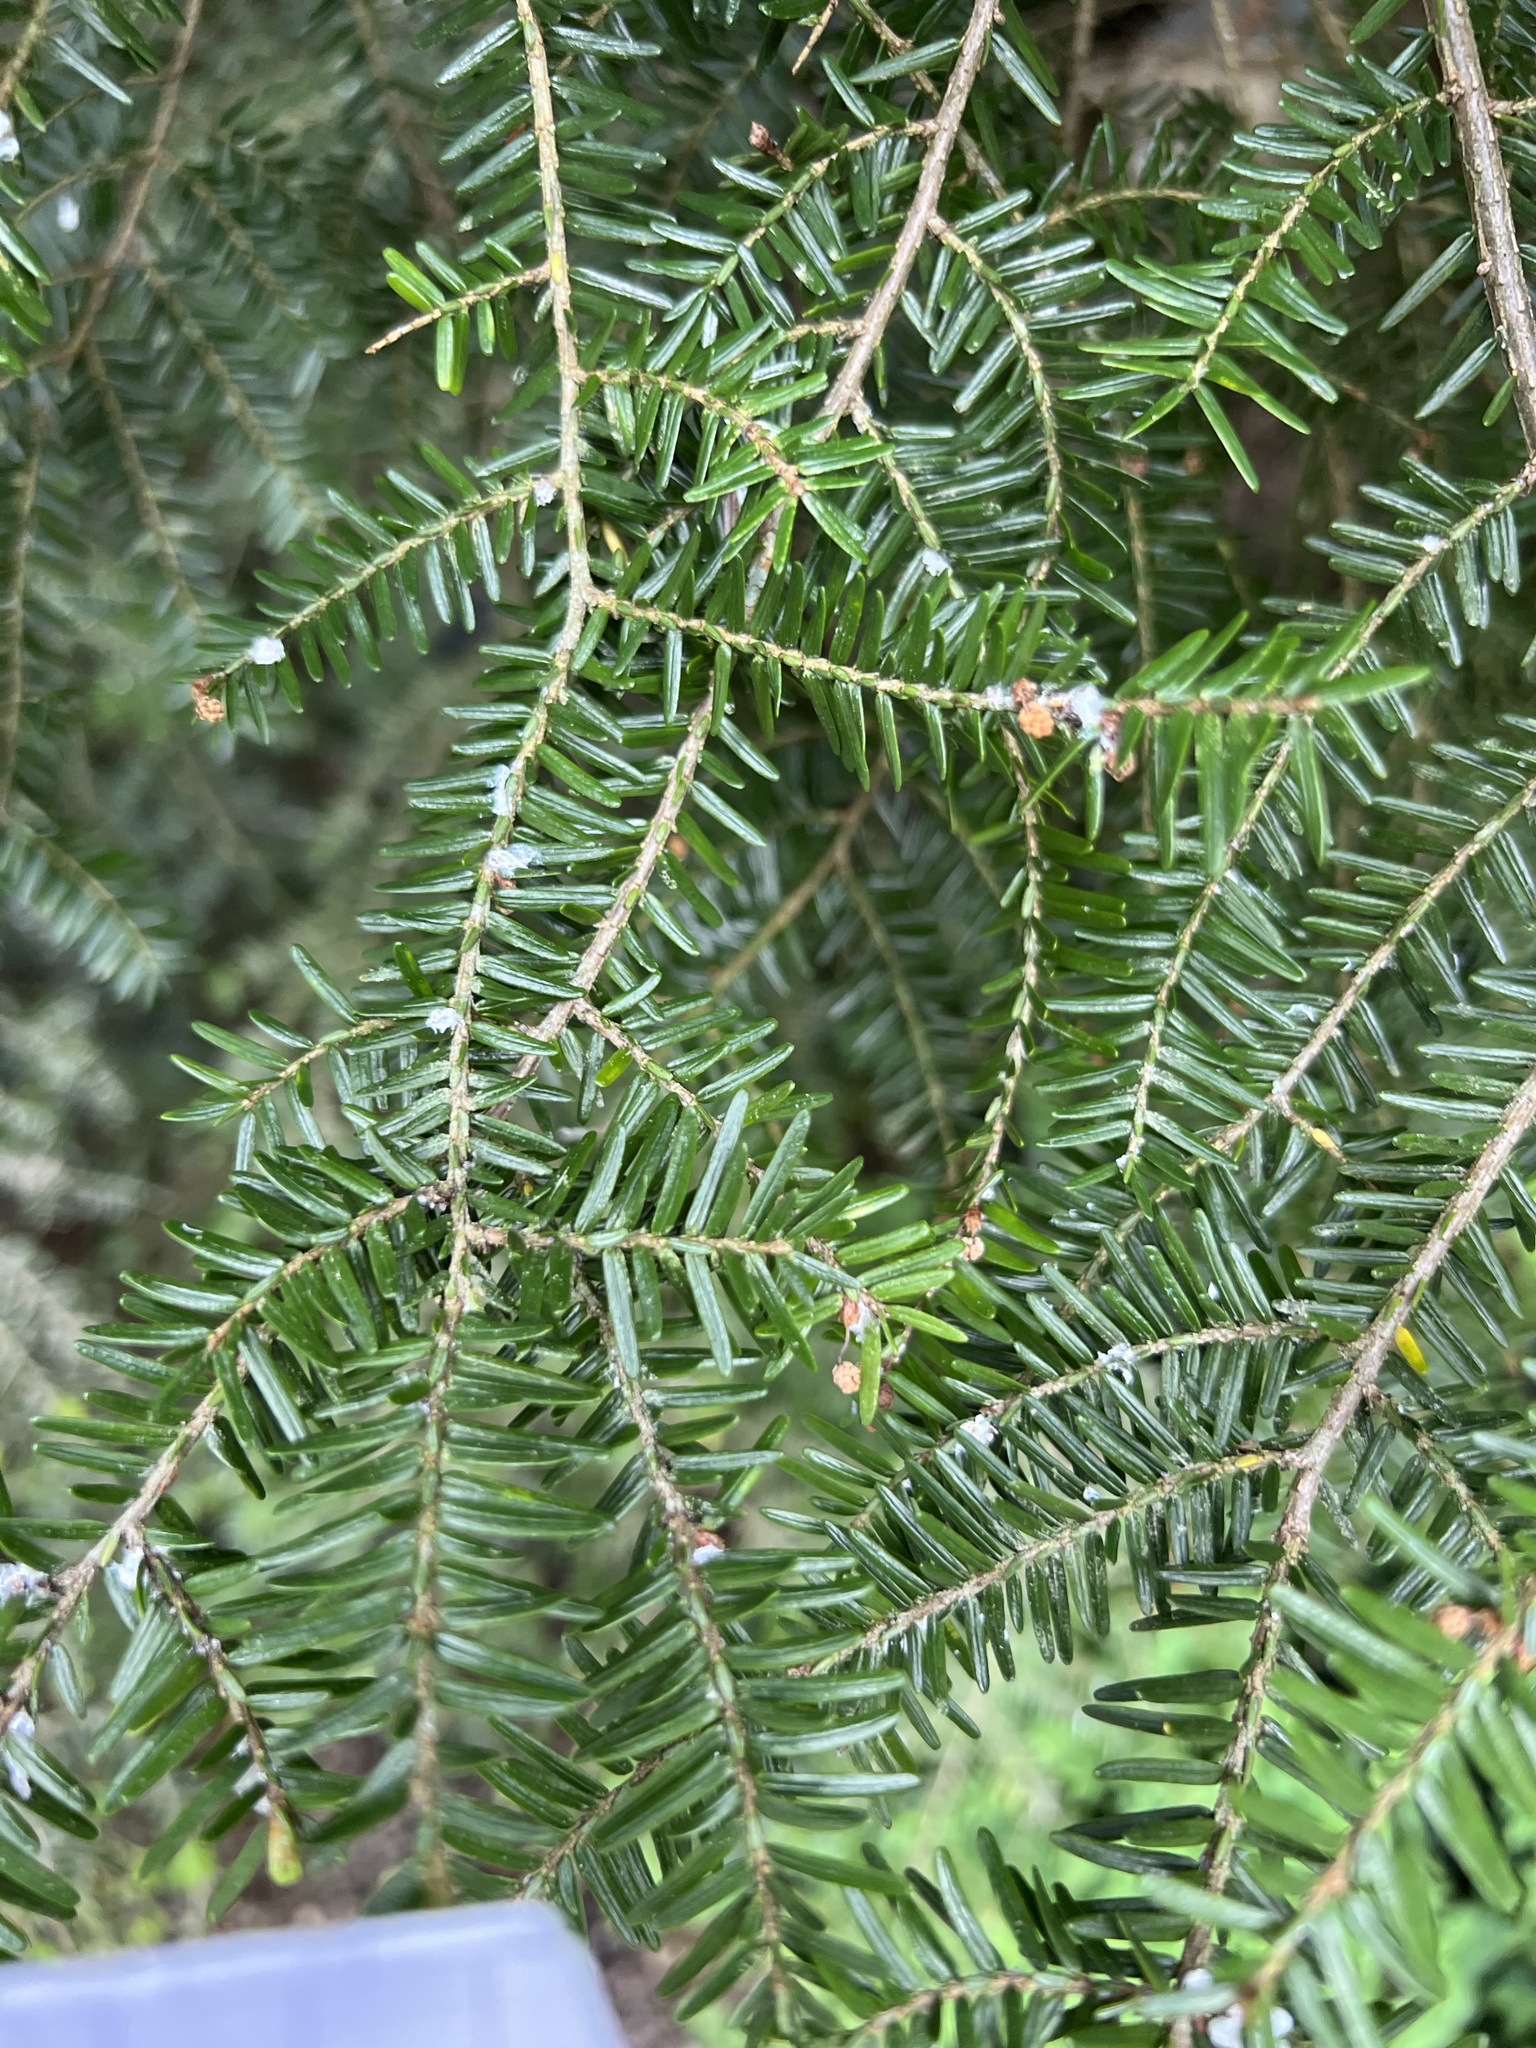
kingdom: Plantae
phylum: Tracheophyta
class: Pinopsida
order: Pinales
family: Pinaceae
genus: Tsuga
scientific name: Tsuga canadensis
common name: Eastern hemlock
